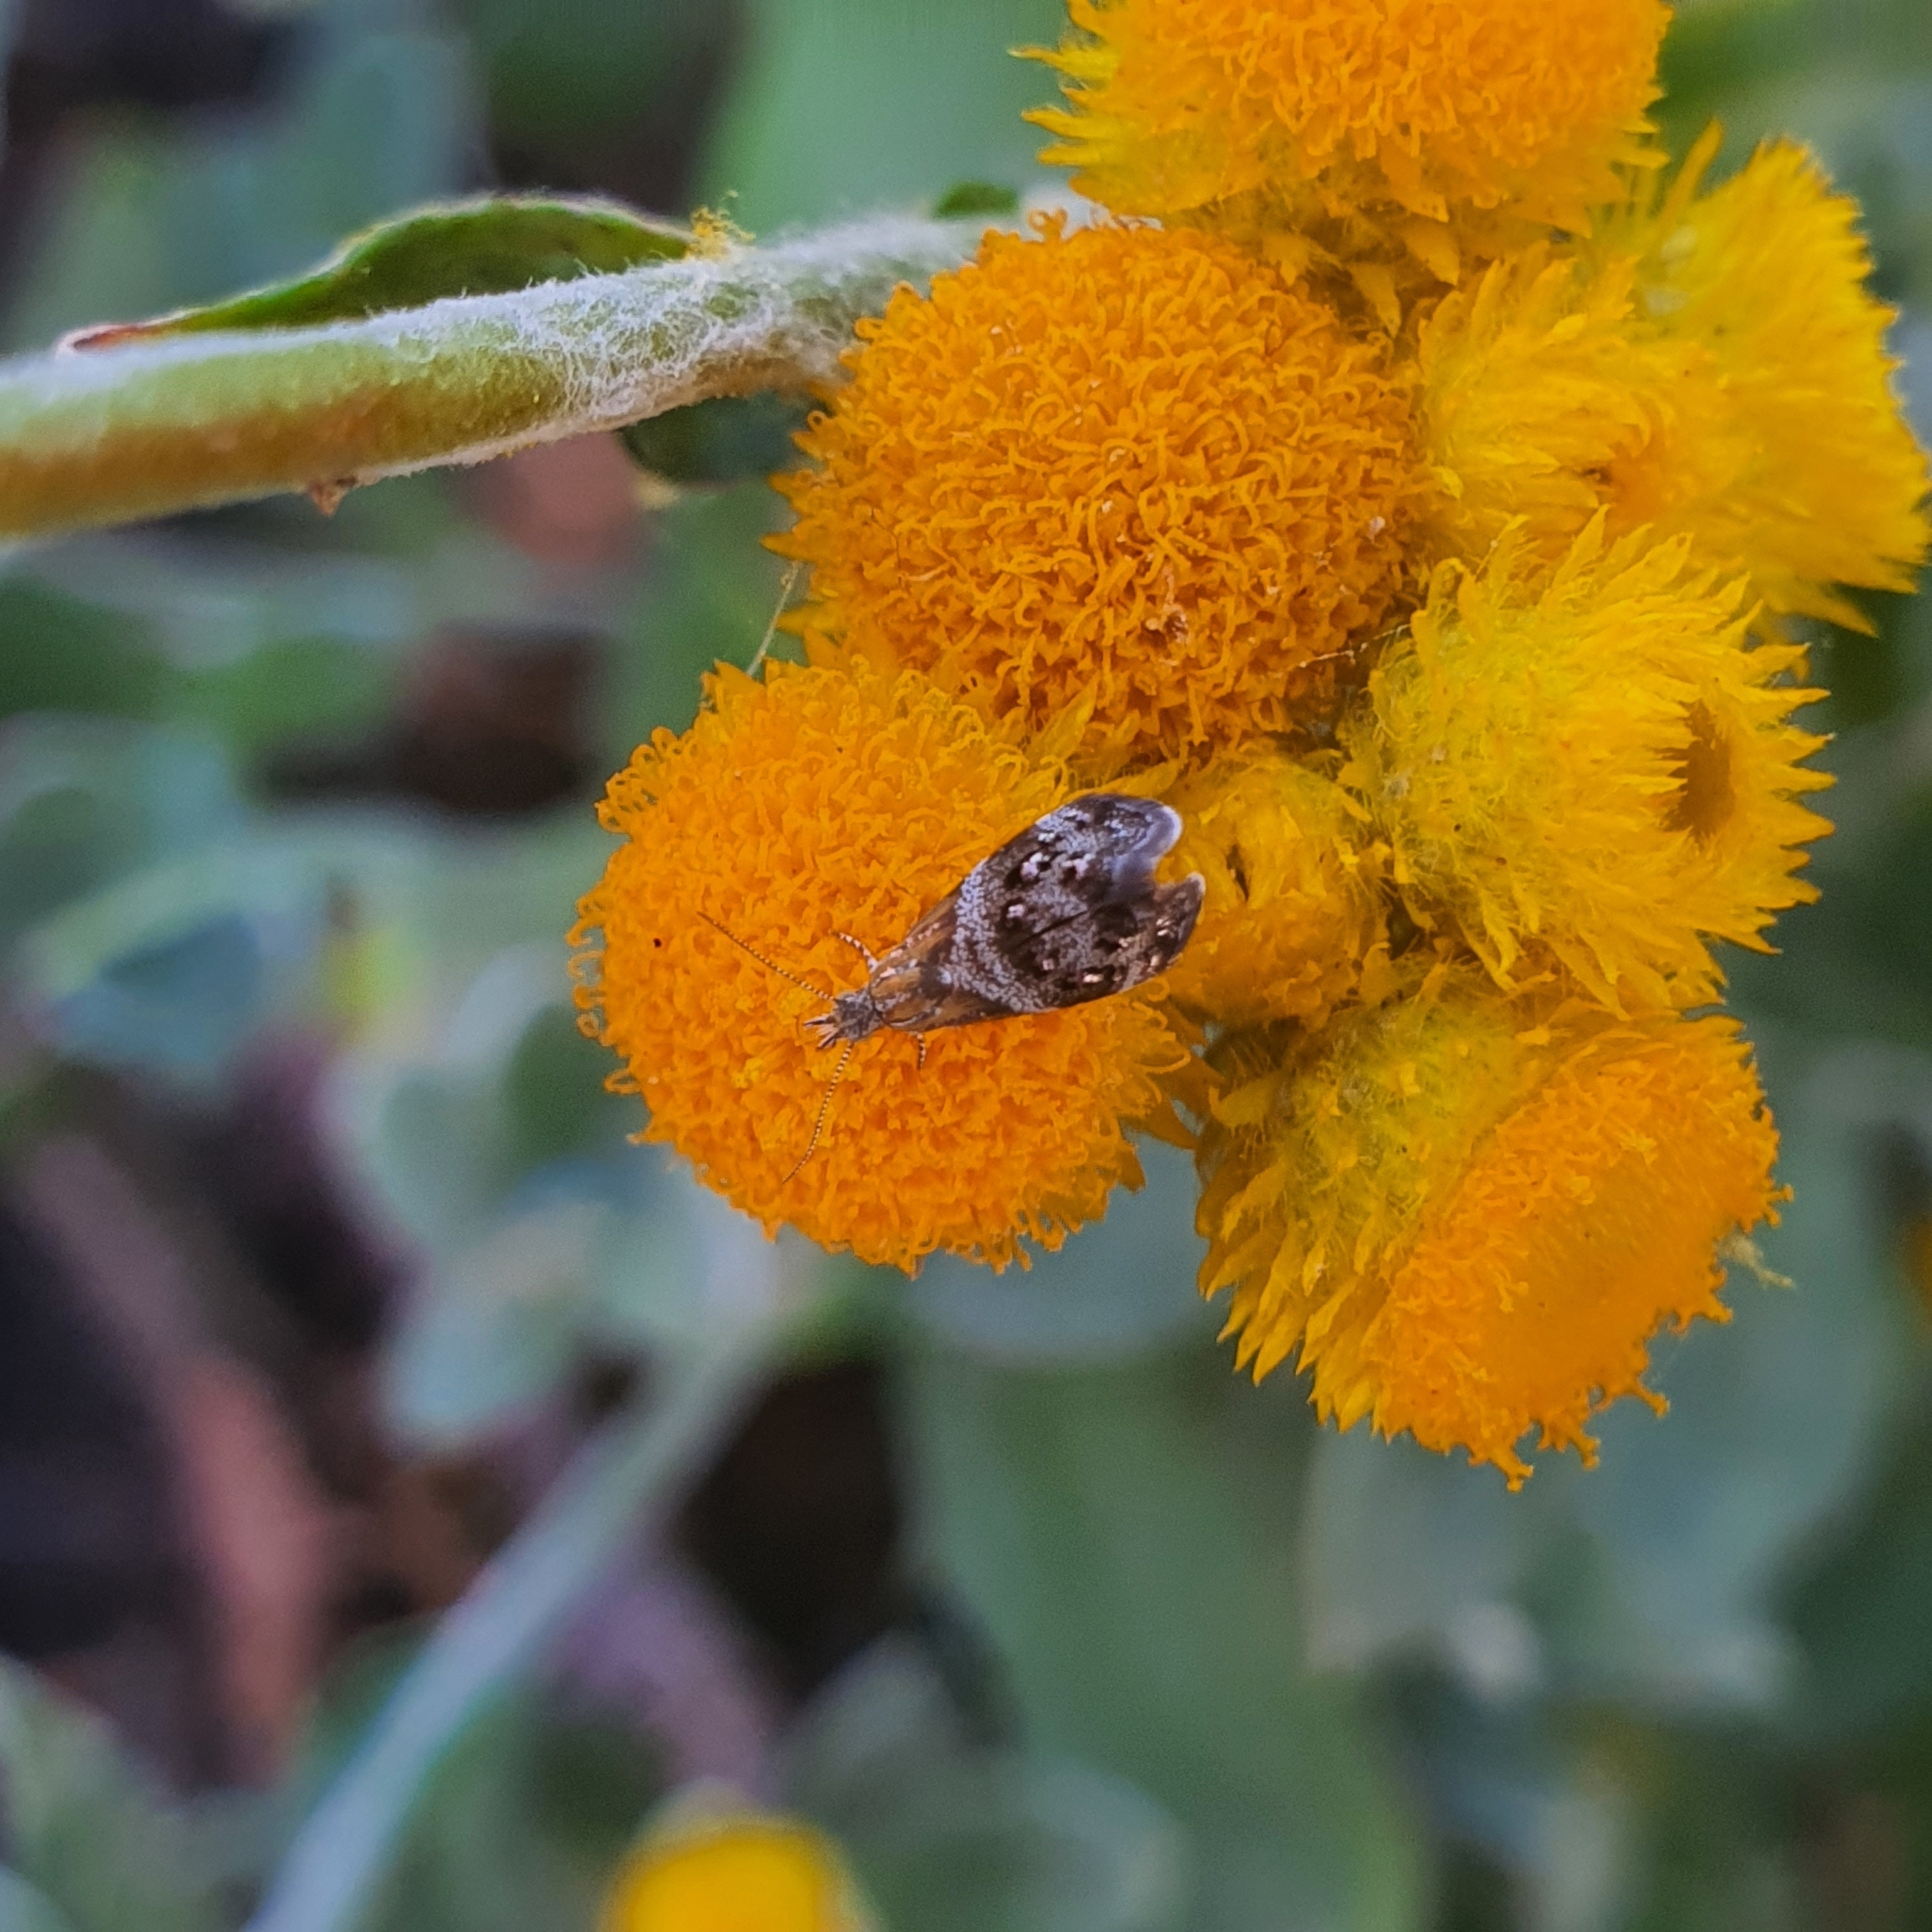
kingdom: Animalia
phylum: Arthropoda
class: Insecta
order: Lepidoptera
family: Choreutidae
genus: Tebenna
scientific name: Tebenna micalis
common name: Vagrant twitcher
